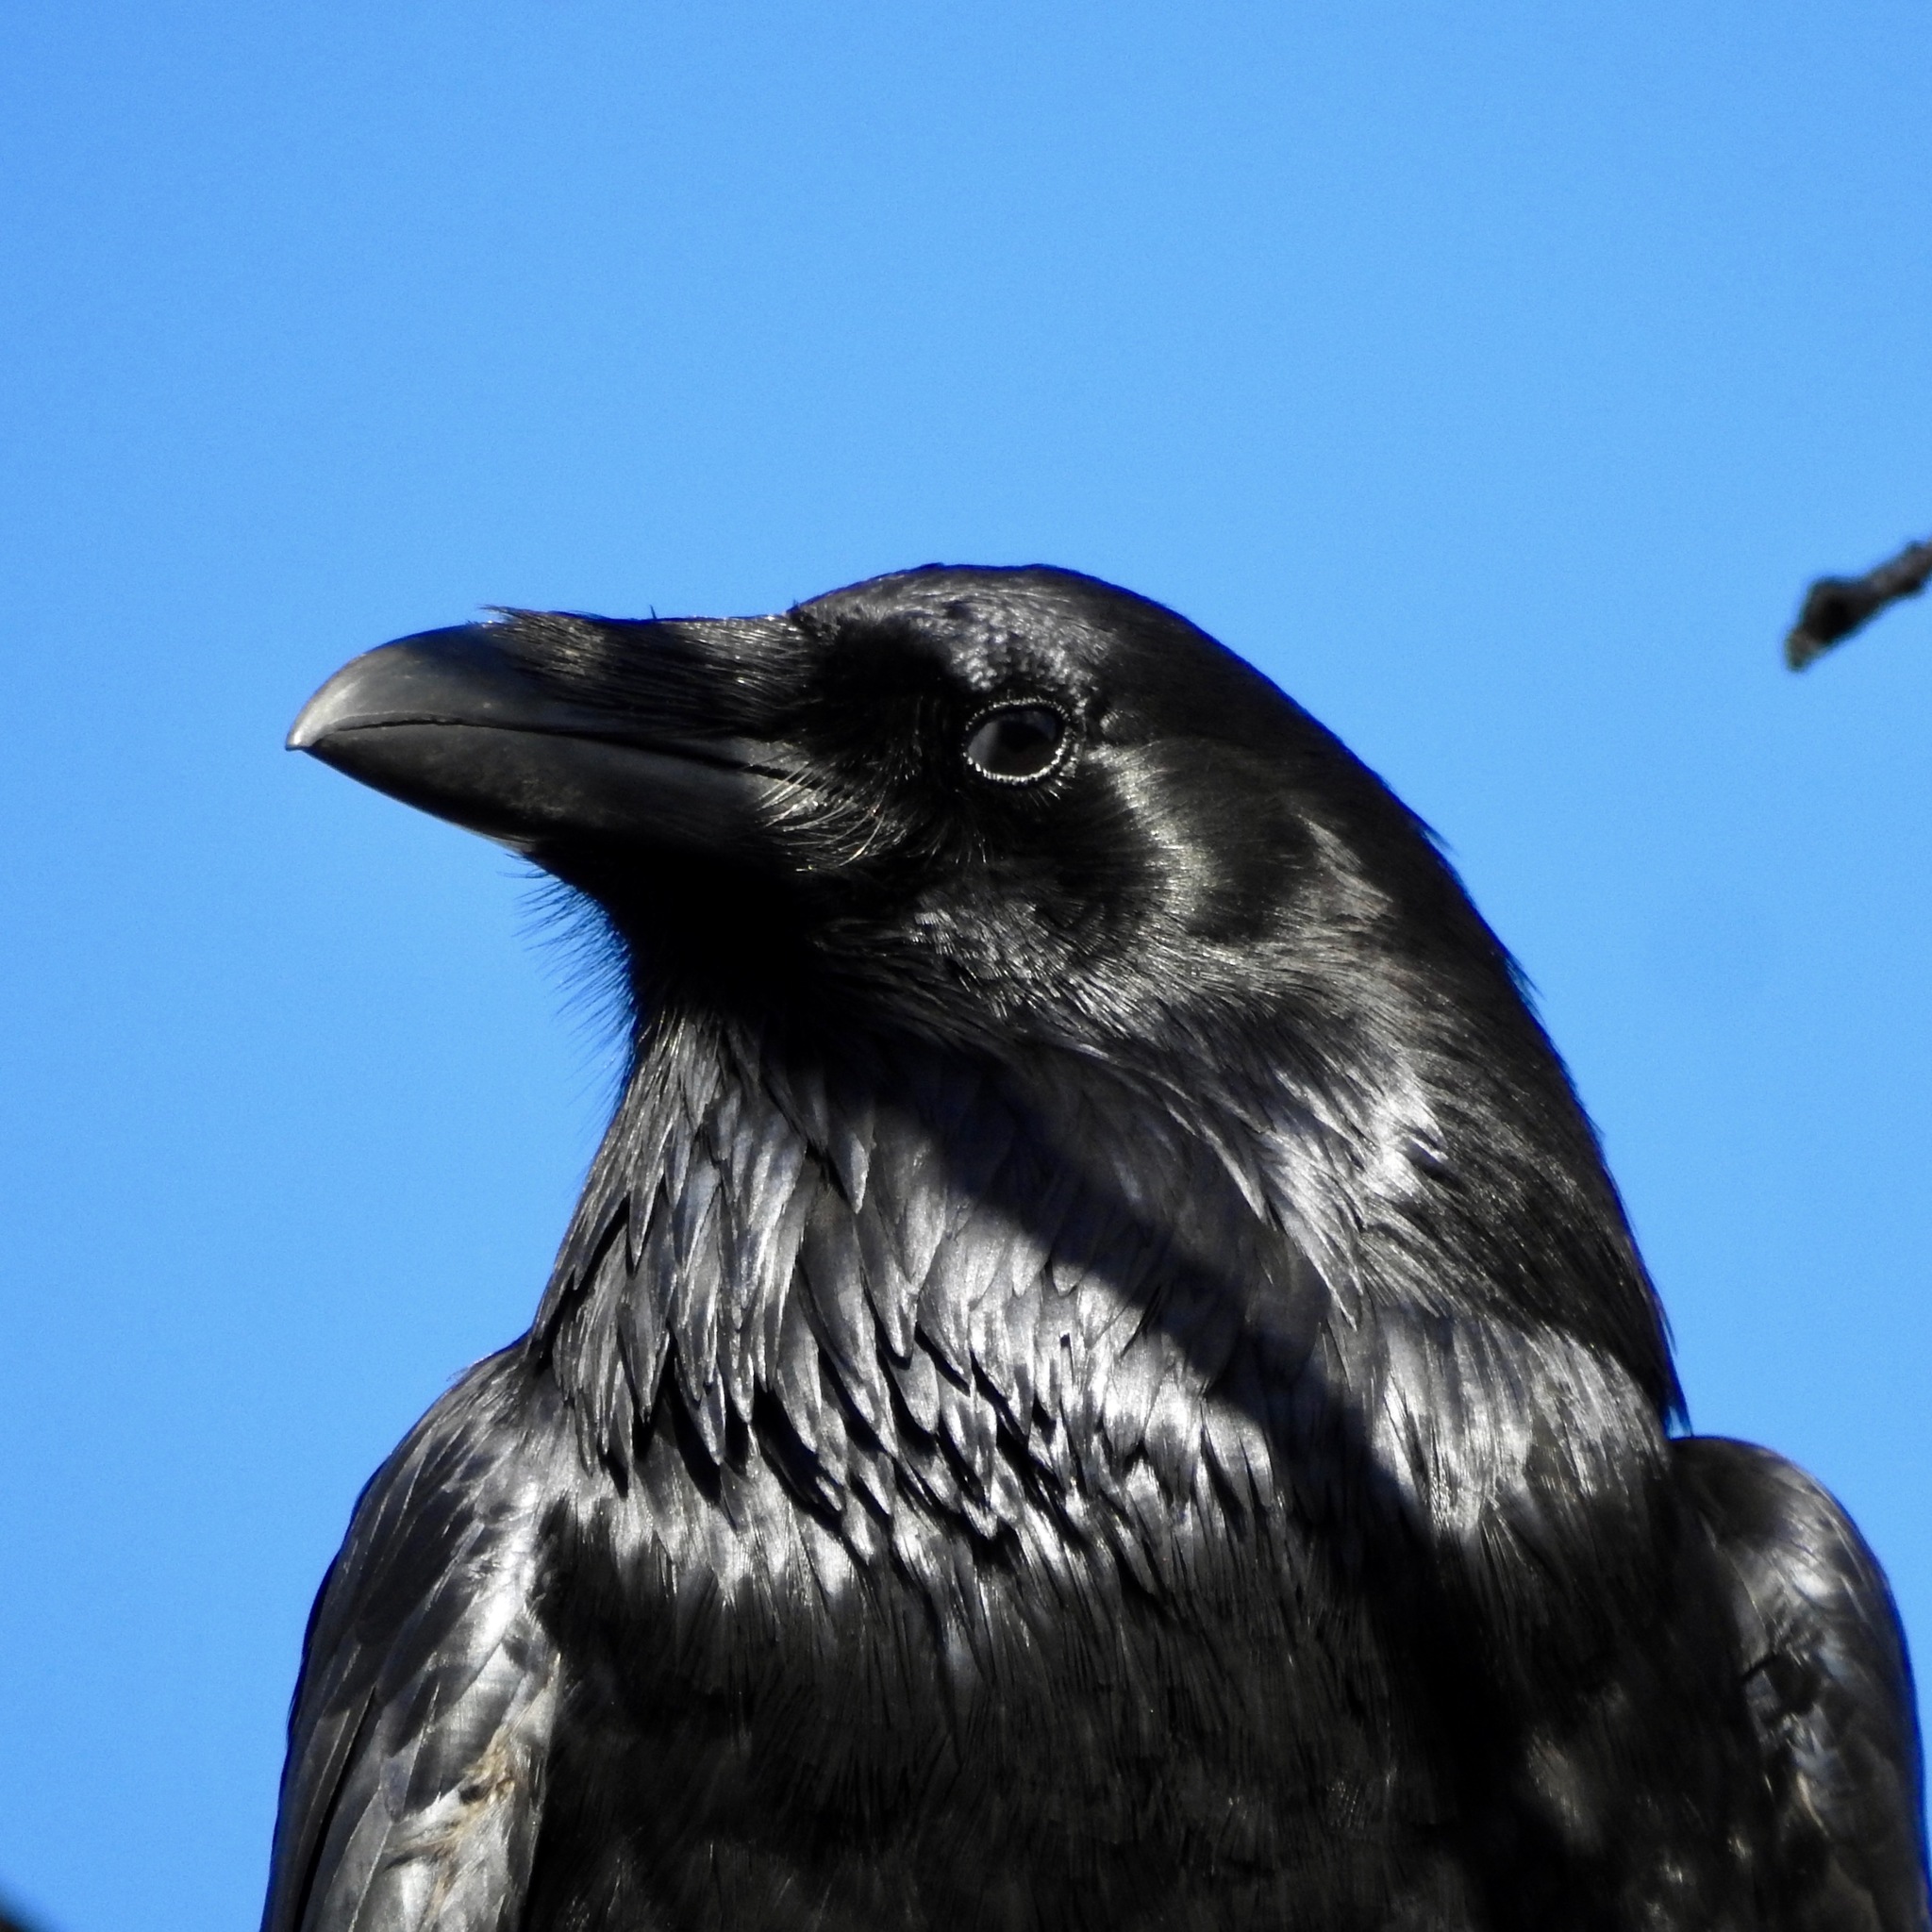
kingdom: Animalia
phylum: Chordata
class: Aves
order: Passeriformes
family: Corvidae
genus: Corvus
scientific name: Corvus corax
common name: Common raven
